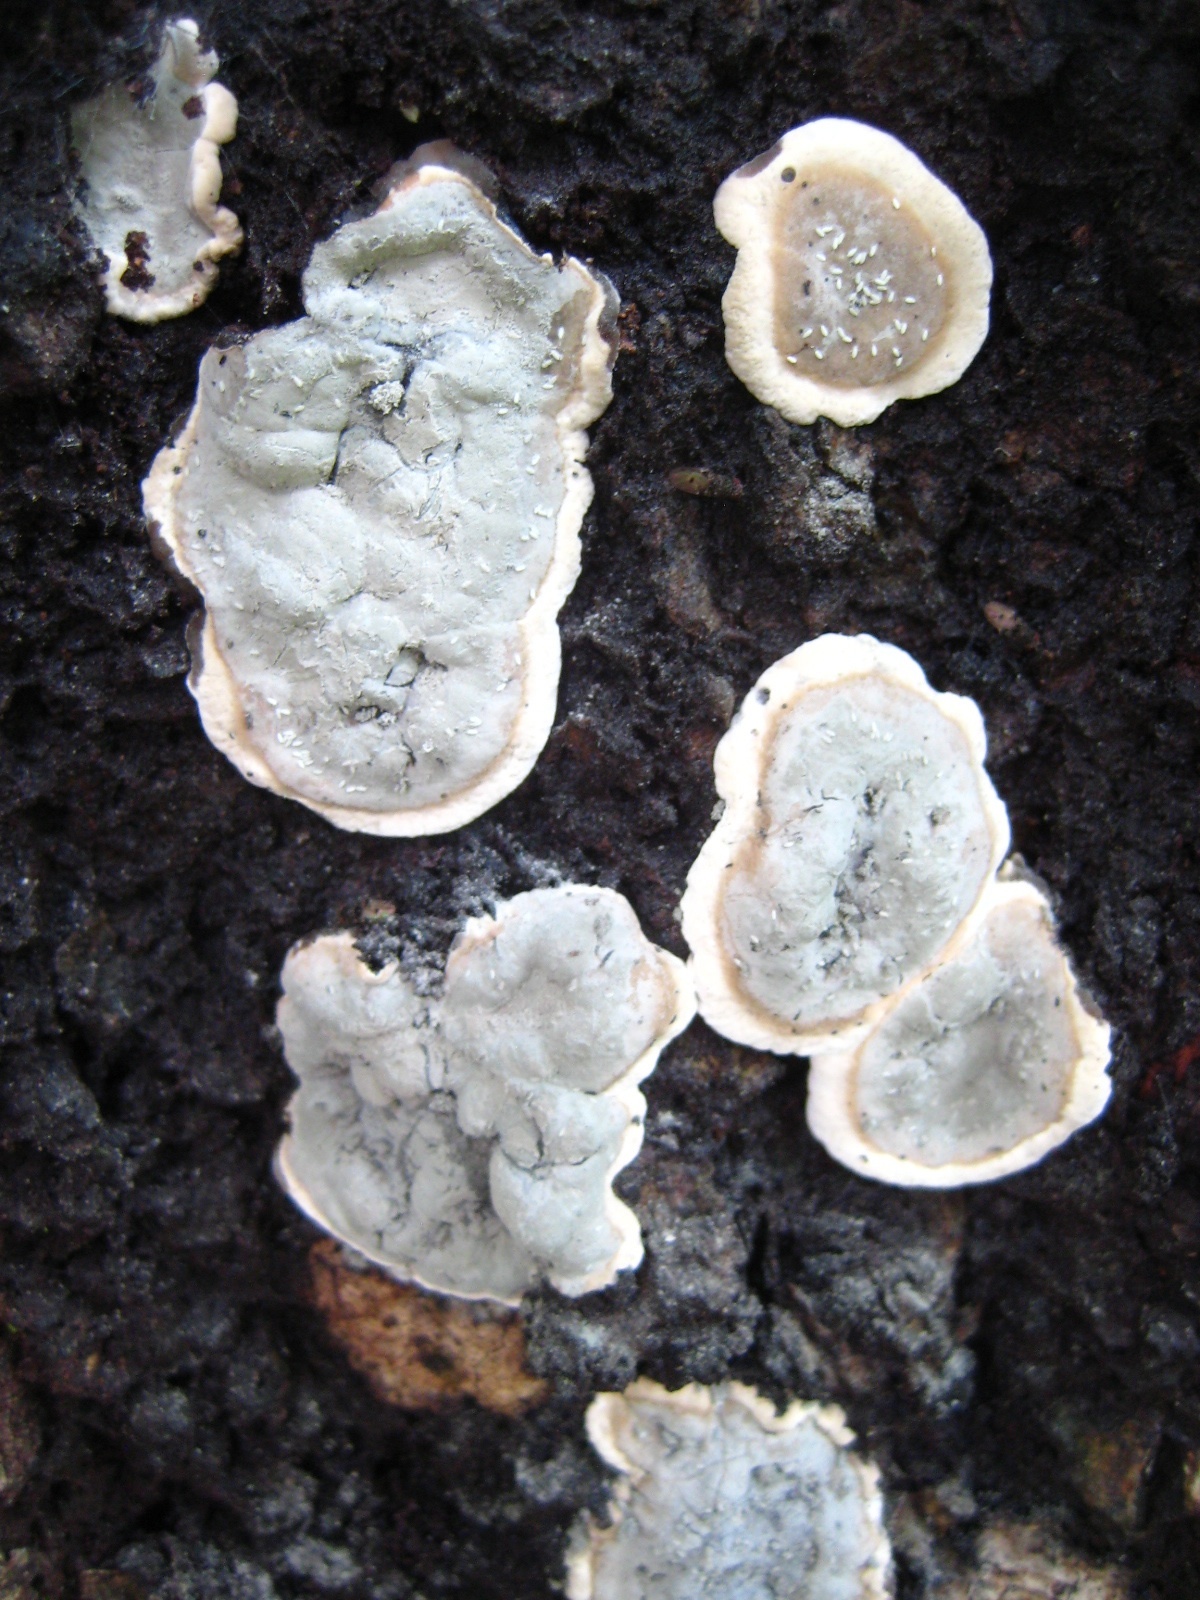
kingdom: Fungi
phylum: Ascomycota
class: Sordariomycetes
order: Xylariales
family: Xylariaceae
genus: Kretzschmaria
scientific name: Kretzschmaria deusta
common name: Brittle cinder
